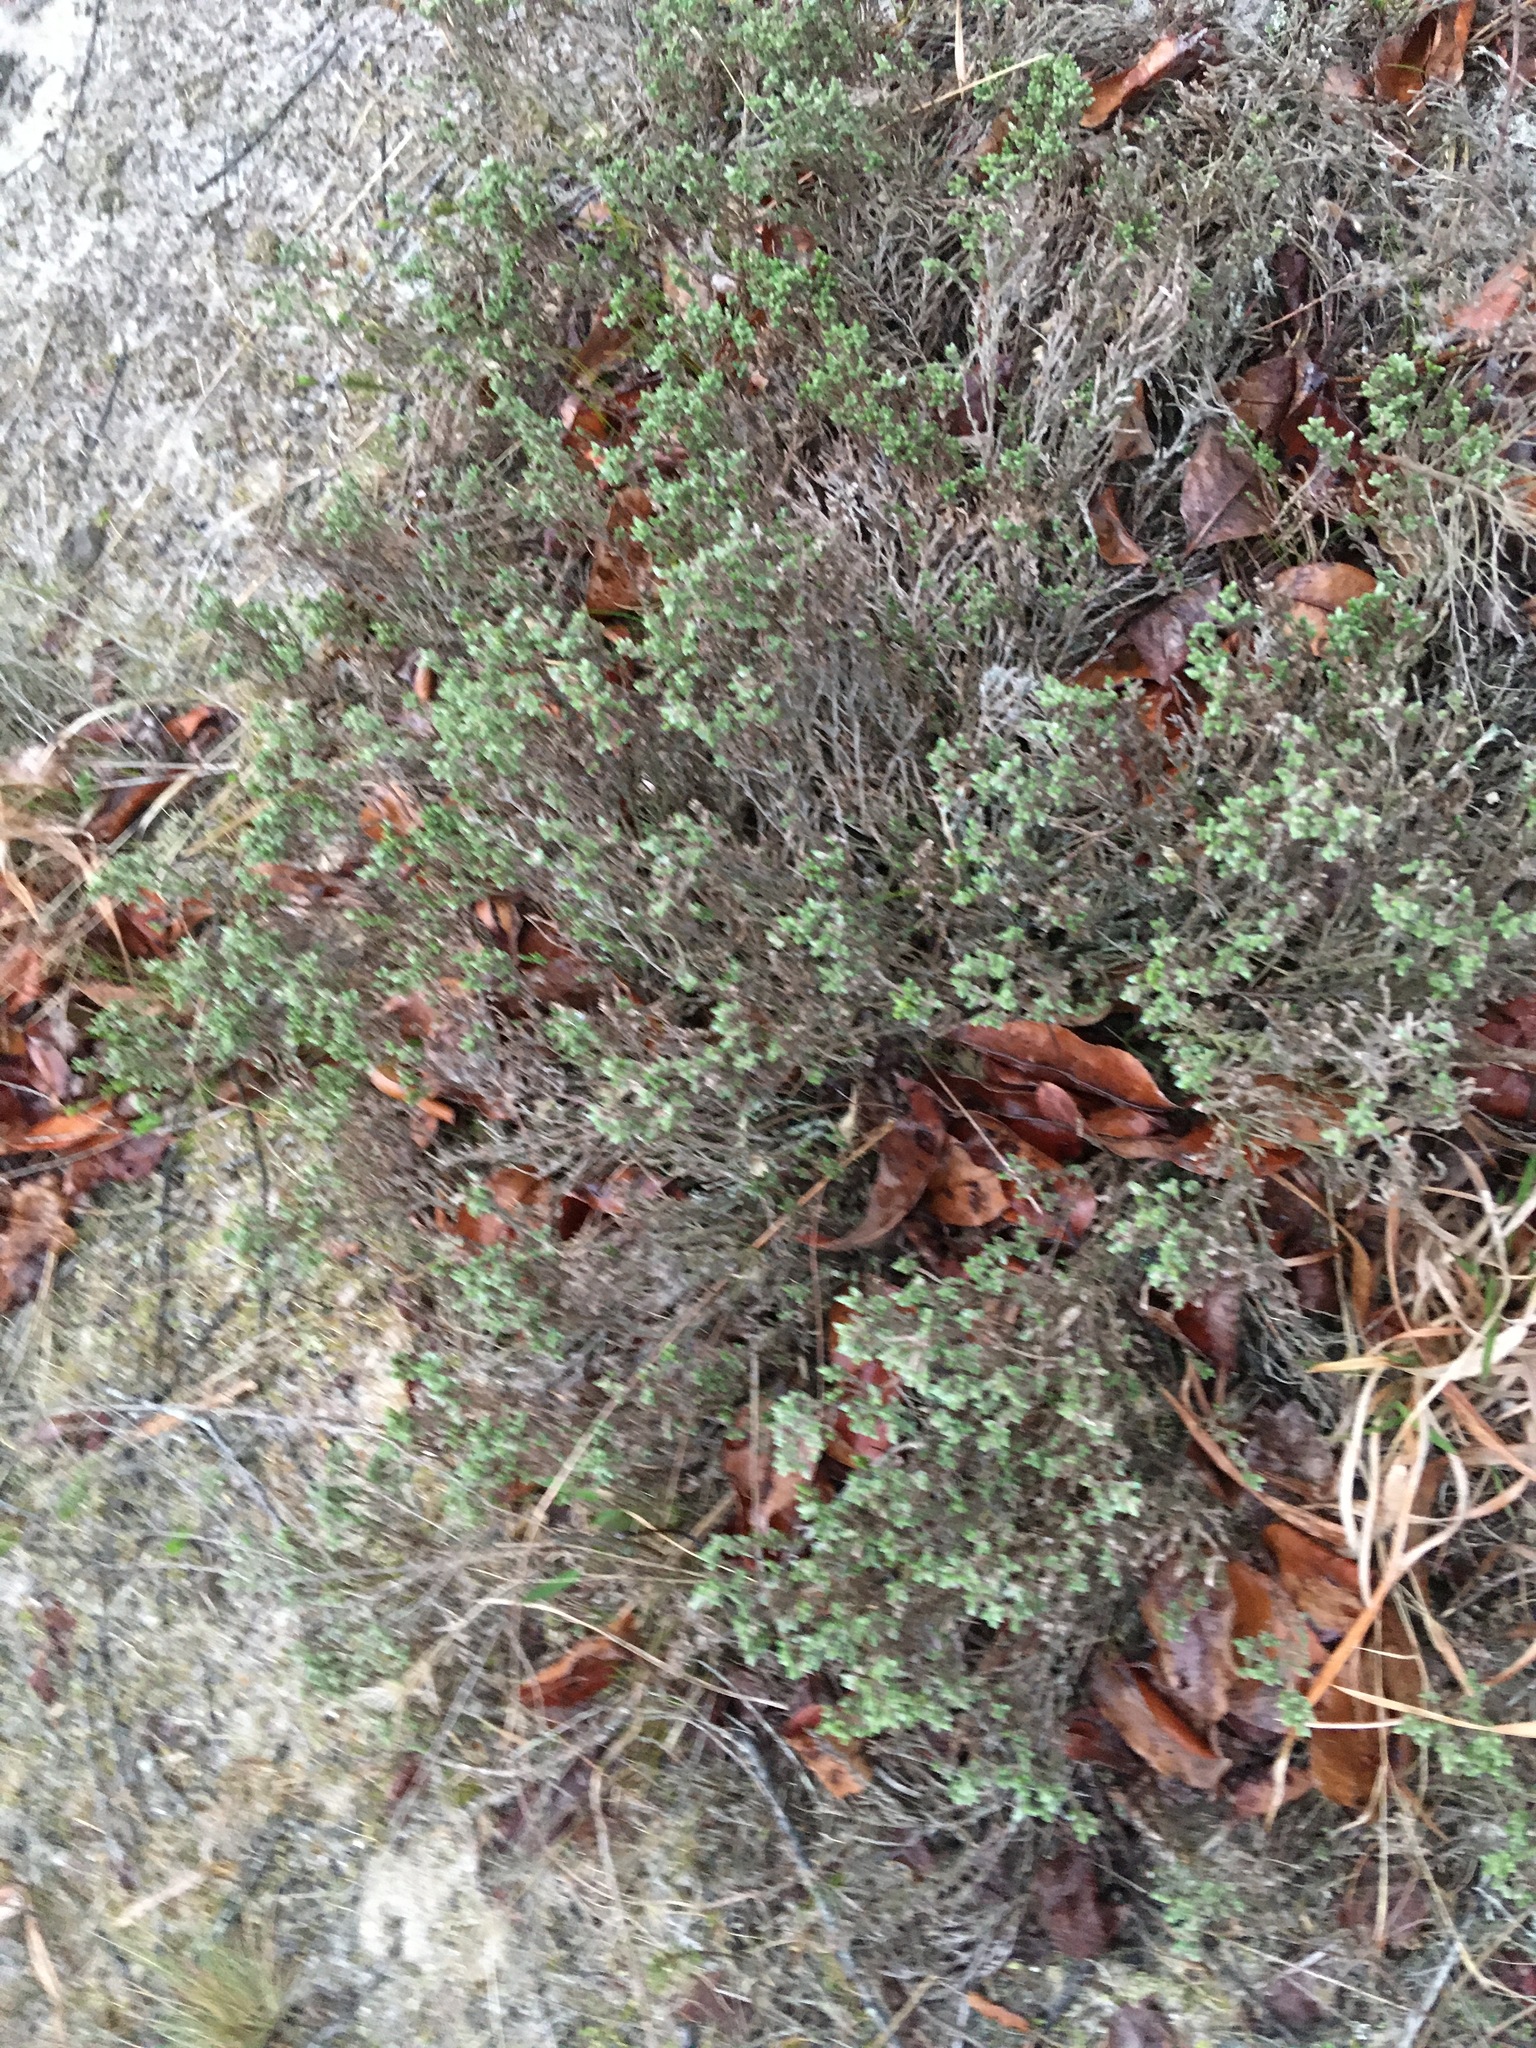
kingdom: Plantae
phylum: Tracheophyta
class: Magnoliopsida
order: Malvales
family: Cistaceae
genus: Hudsonia
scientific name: Hudsonia tomentosa
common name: Beach-heath
